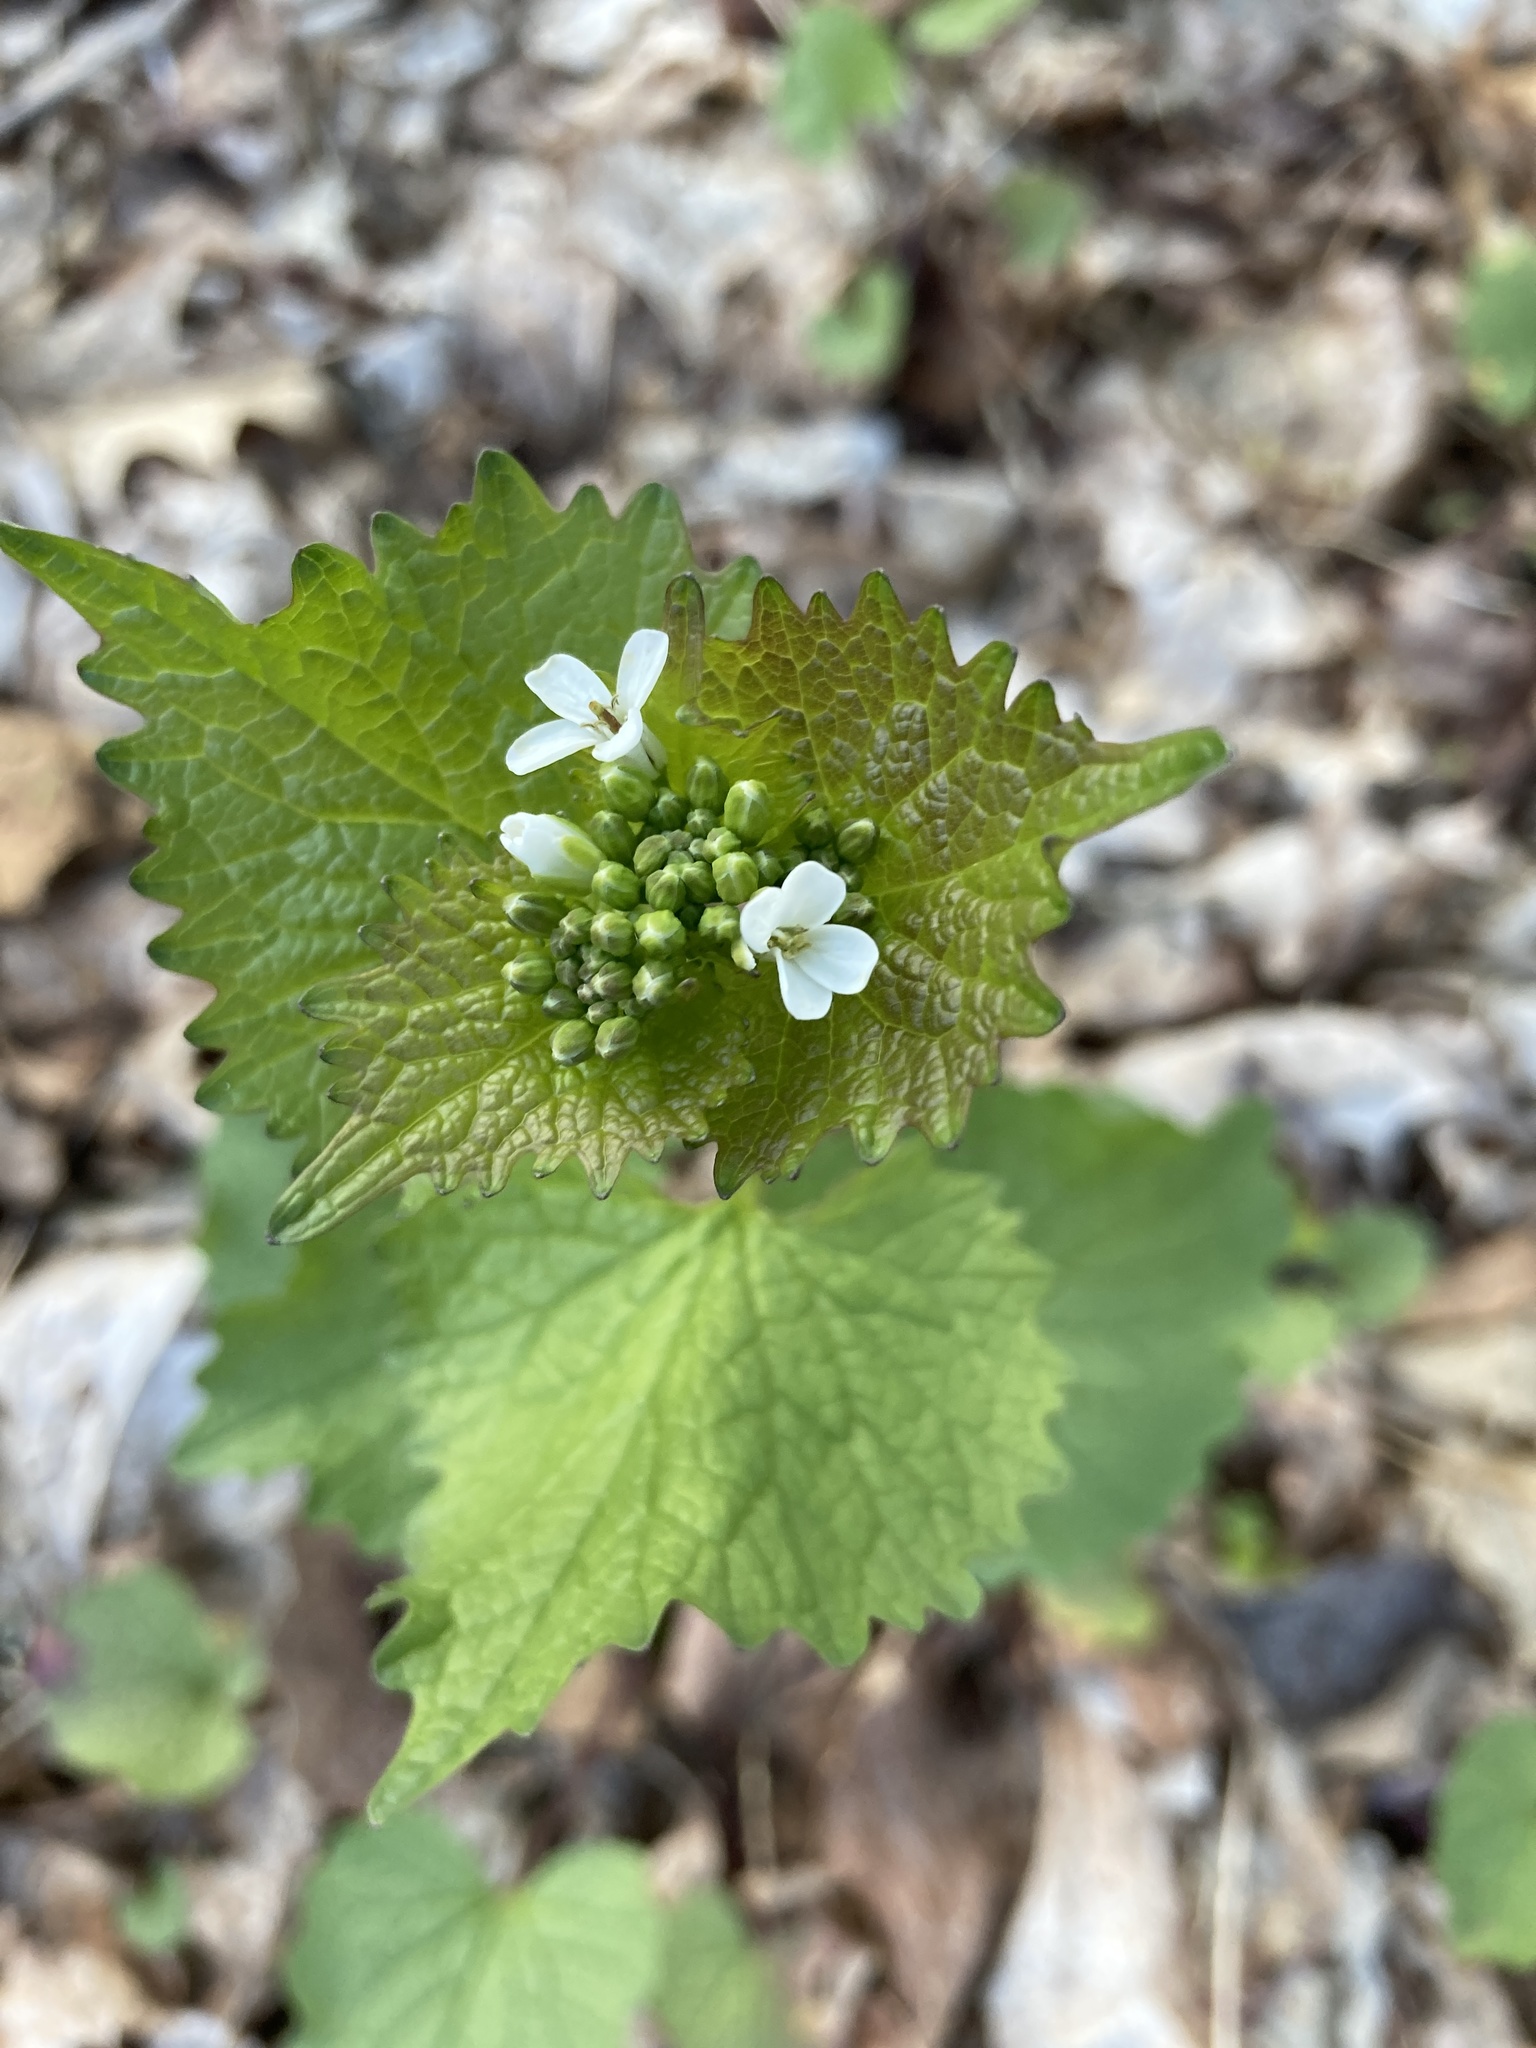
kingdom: Plantae
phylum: Tracheophyta
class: Magnoliopsida
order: Brassicales
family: Brassicaceae
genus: Alliaria
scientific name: Alliaria petiolata
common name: Garlic mustard
